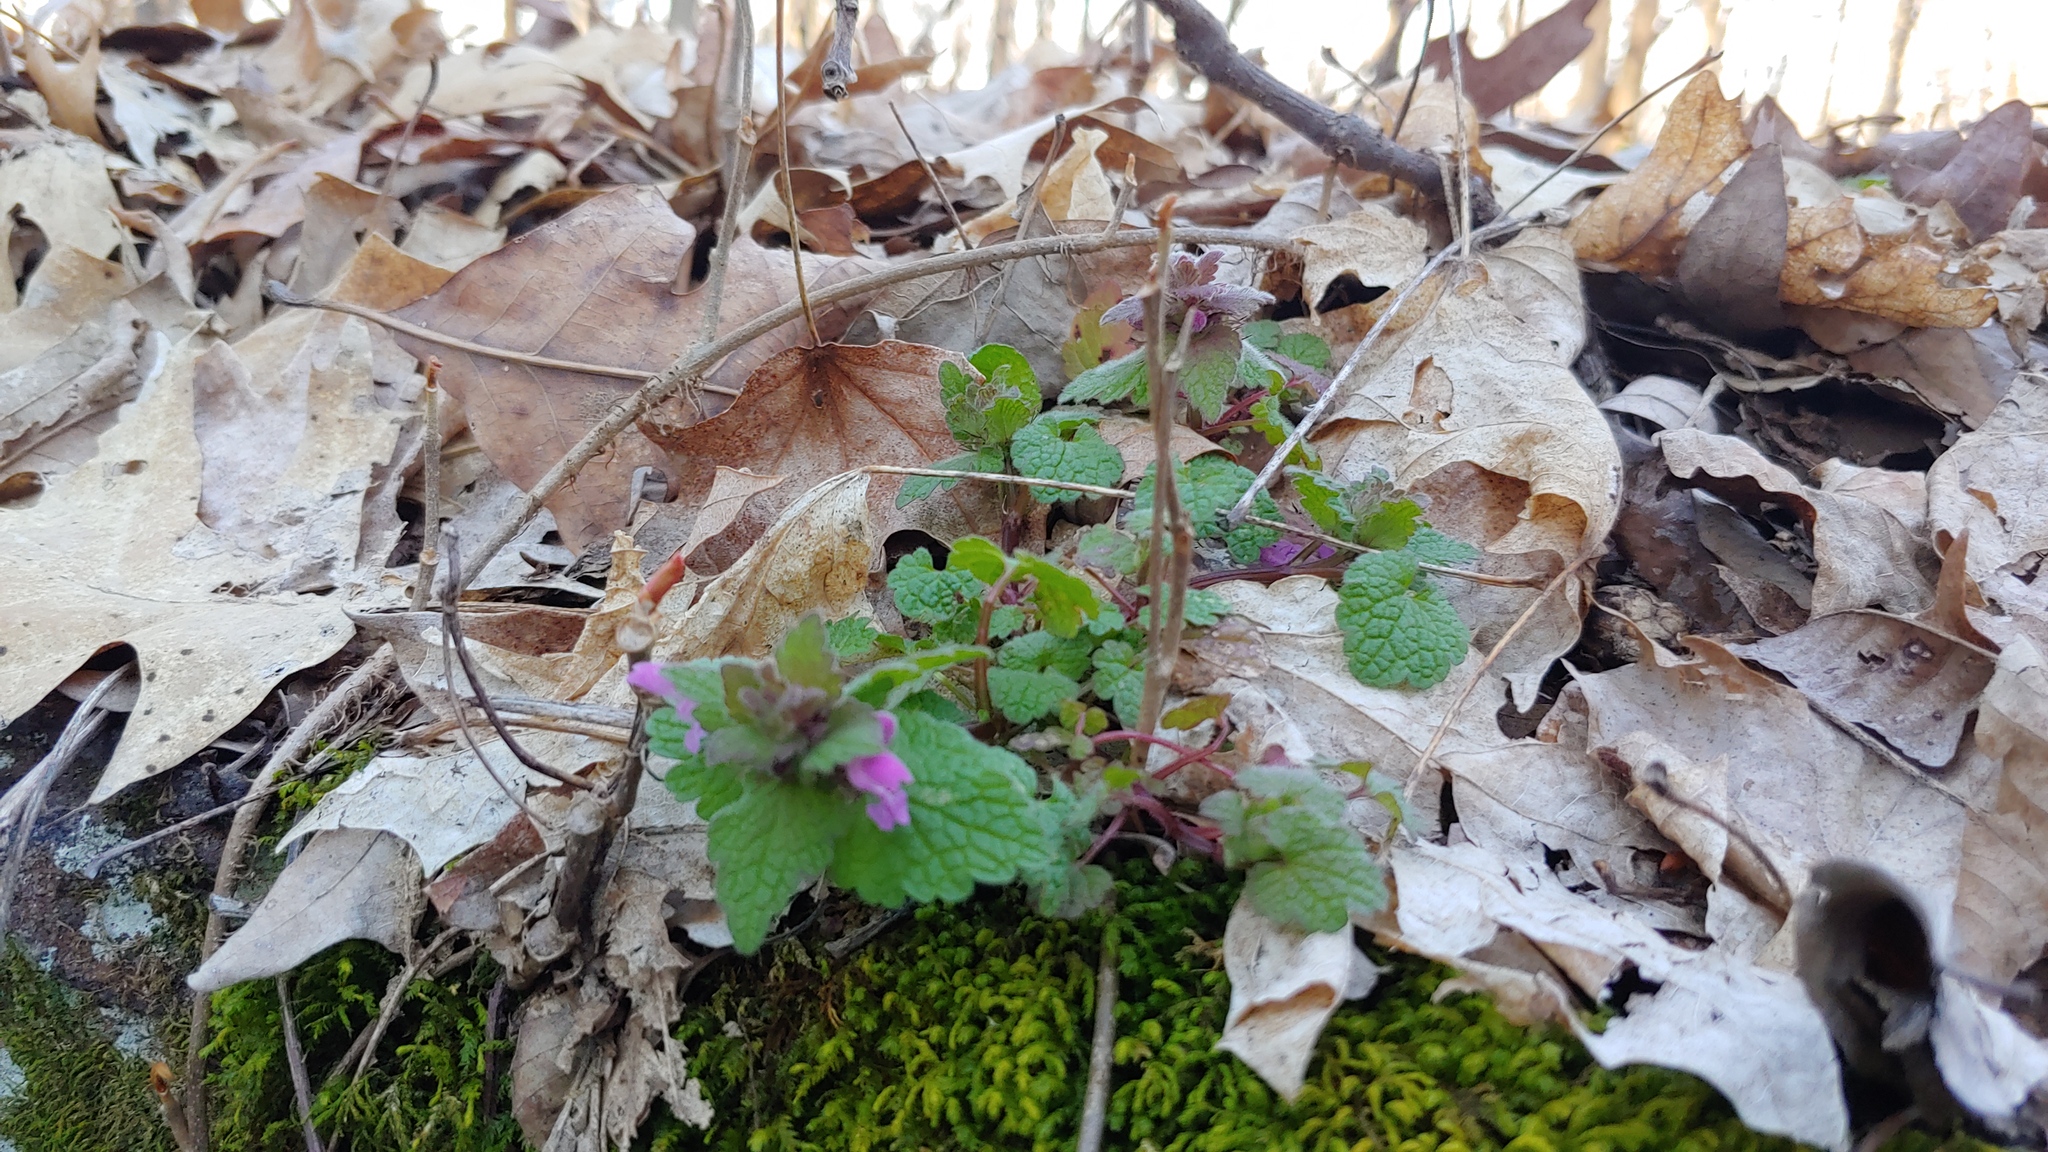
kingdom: Plantae
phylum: Tracheophyta
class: Magnoliopsida
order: Lamiales
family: Lamiaceae
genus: Lamium
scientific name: Lamium purpureum
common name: Red dead-nettle
